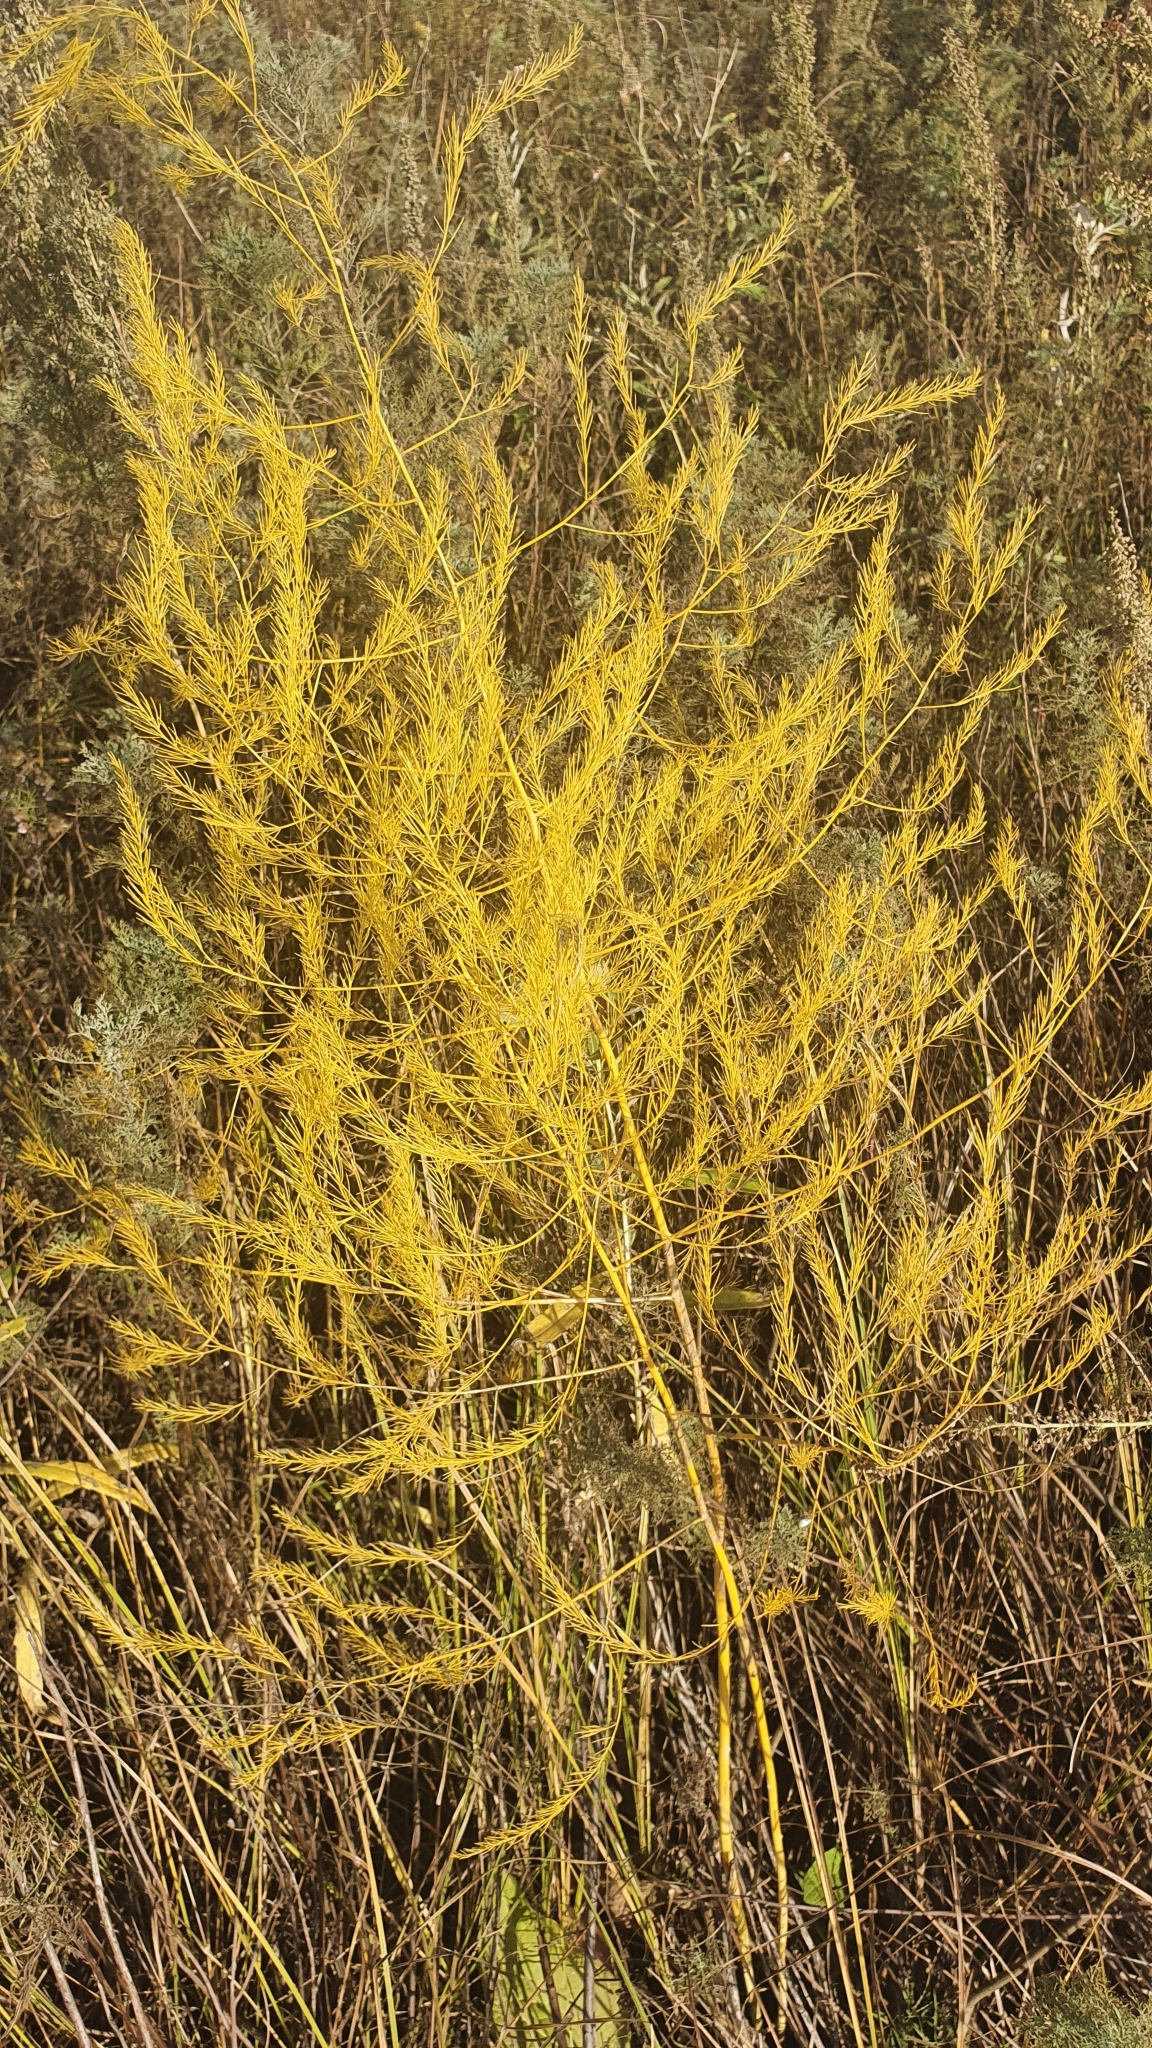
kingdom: Plantae
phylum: Tracheophyta
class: Liliopsida
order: Asparagales
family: Asparagaceae
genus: Asparagus
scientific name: Asparagus officinalis
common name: Garden asparagus
